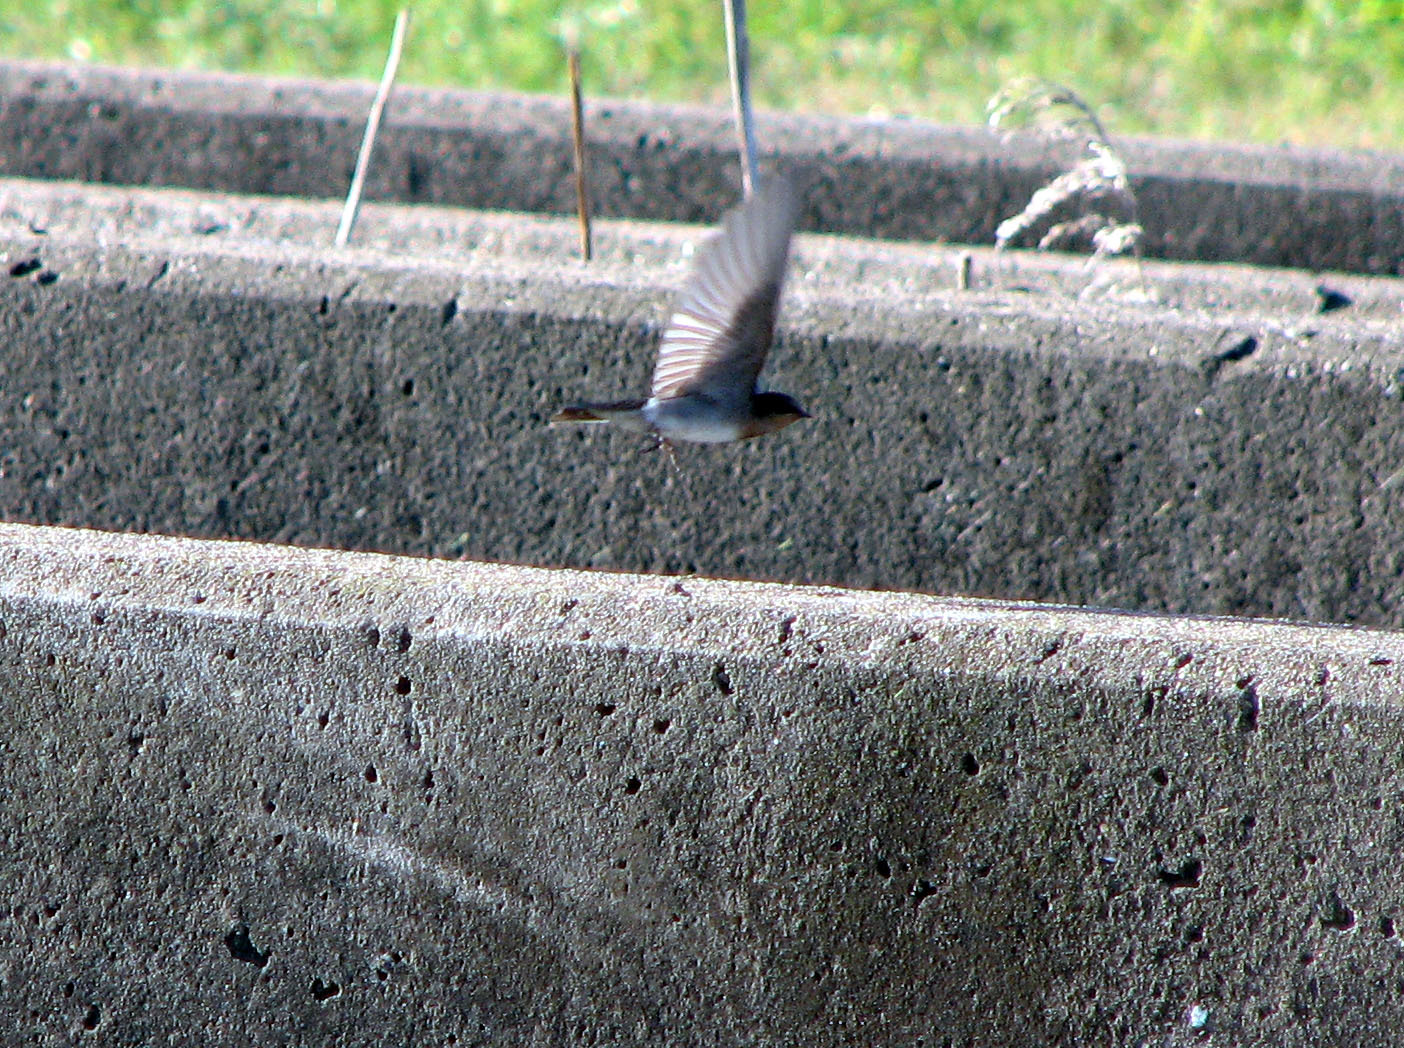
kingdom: Animalia
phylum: Chordata
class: Aves
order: Passeriformes
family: Hirundinidae
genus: Hirundo
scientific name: Hirundo neoxena
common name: Welcome swallow
